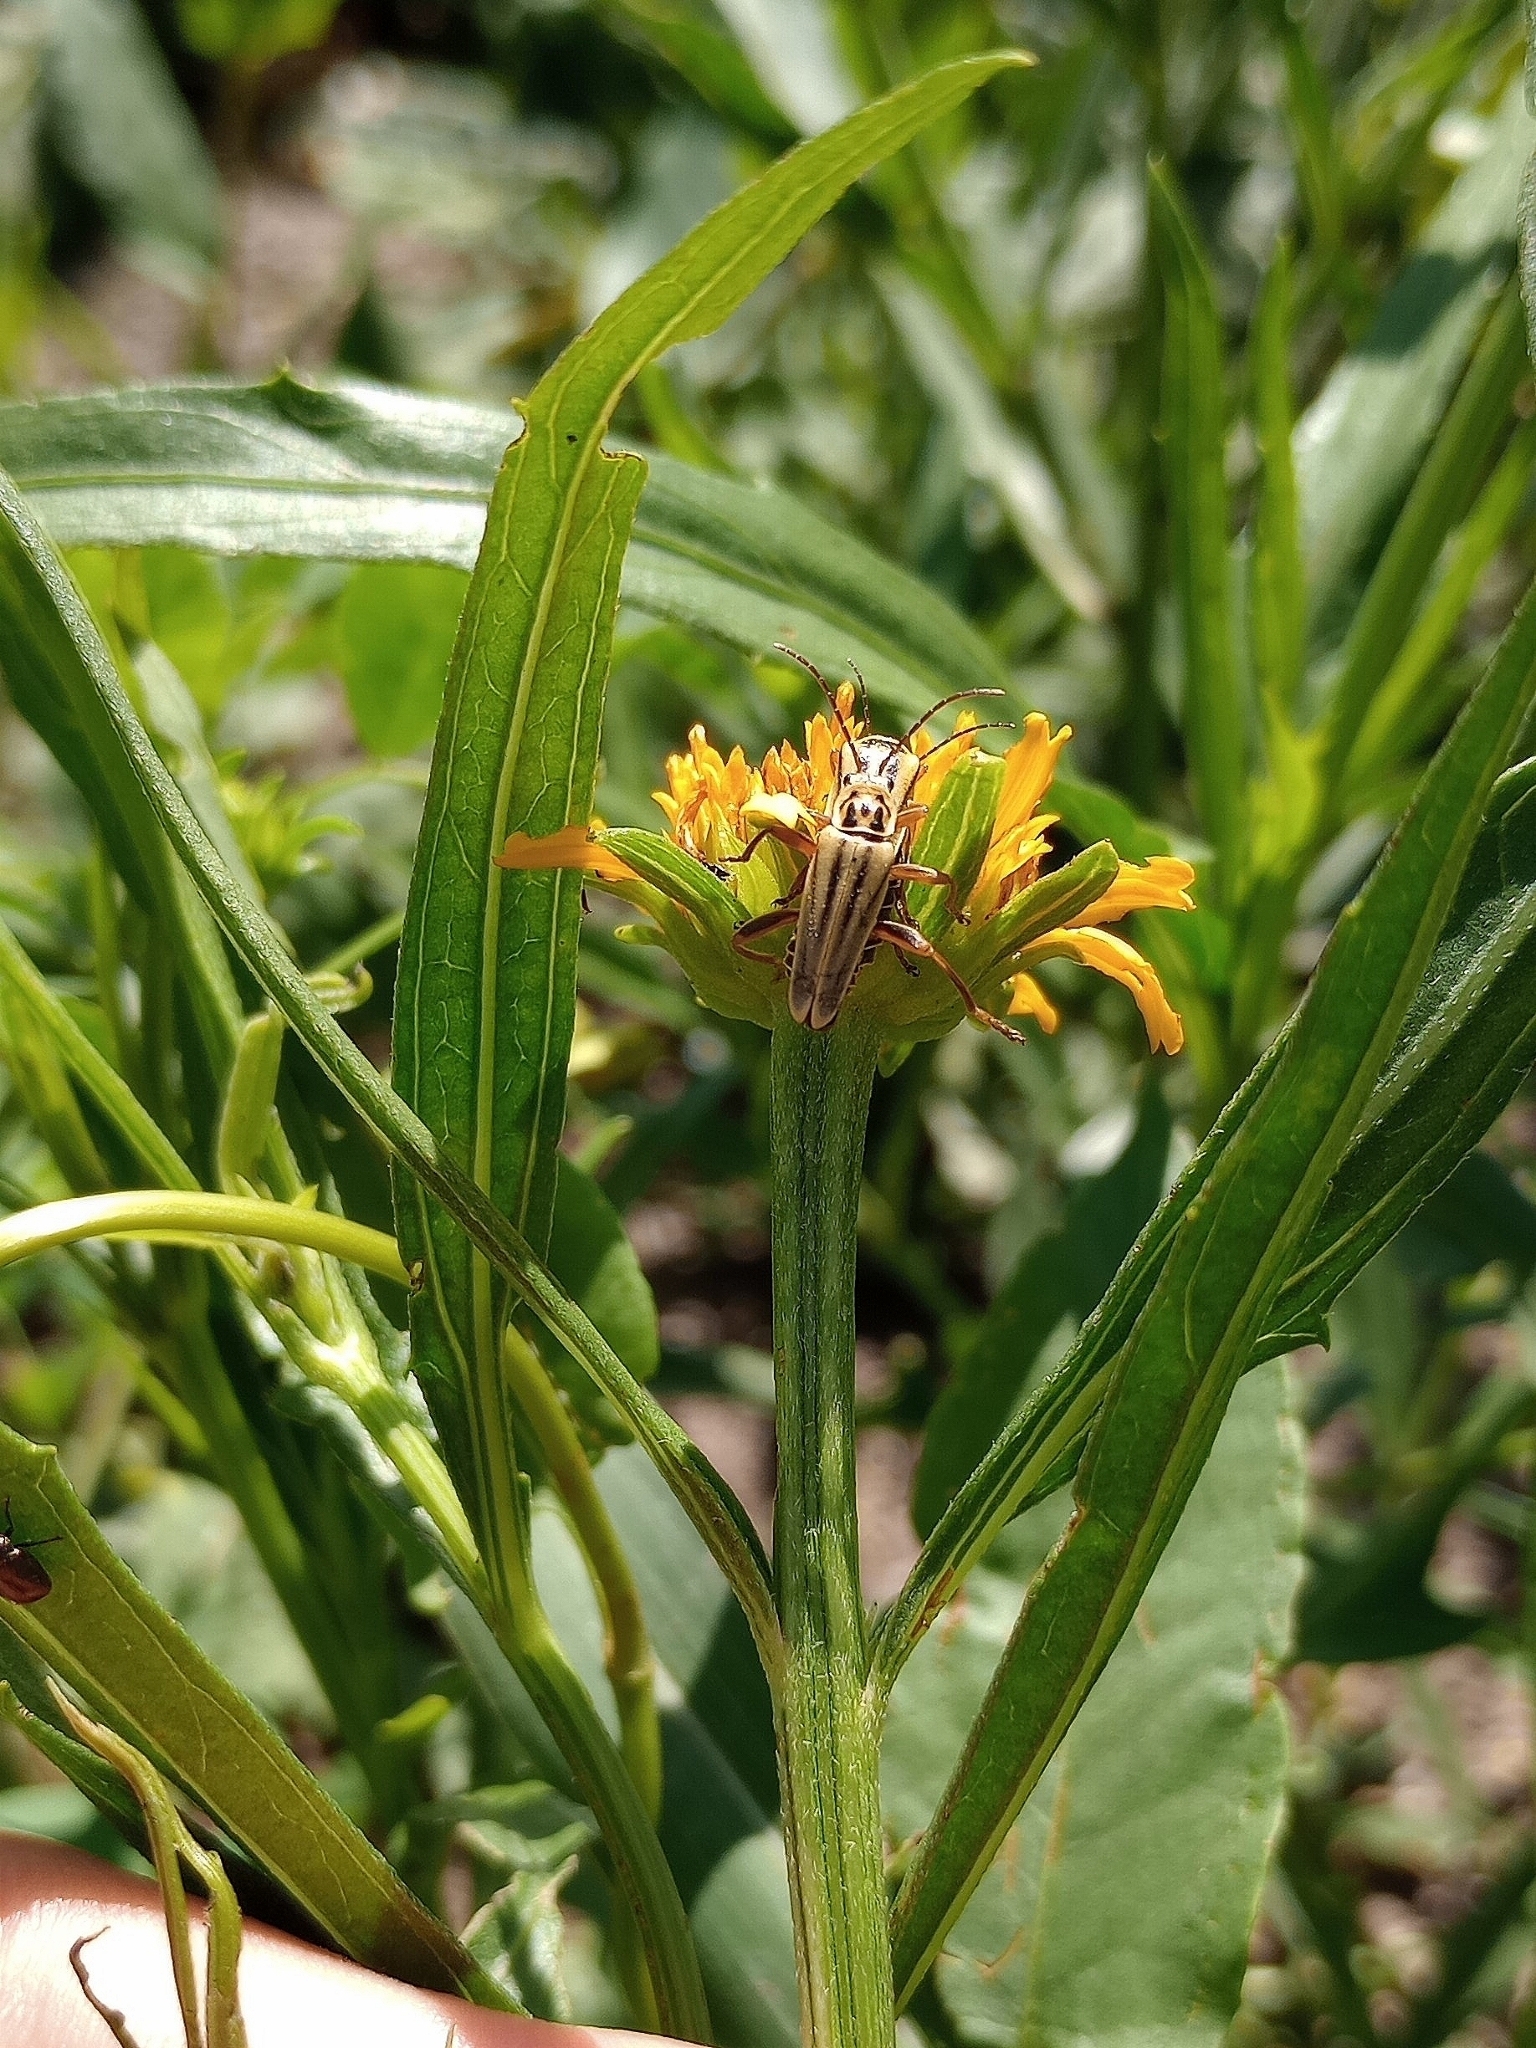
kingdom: Animalia
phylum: Arthropoda
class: Insecta
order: Coleoptera
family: Cantharidae
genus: Chauliognathus
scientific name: Chauliognathus
